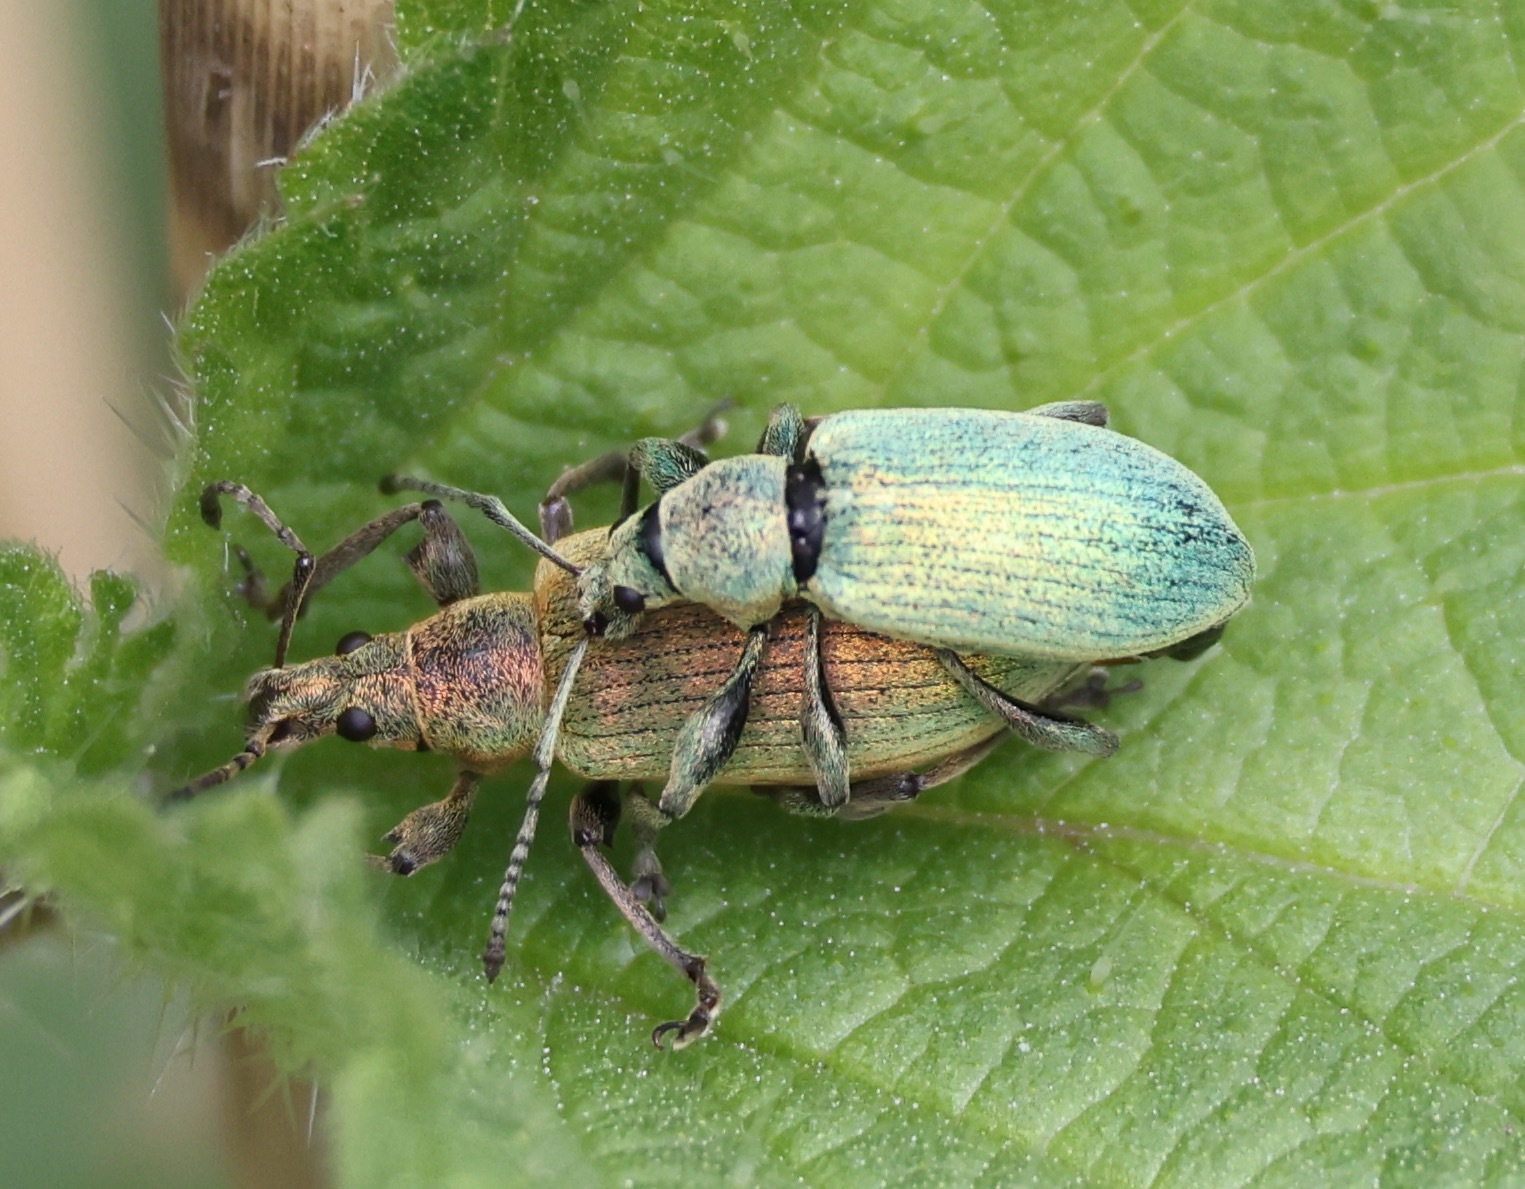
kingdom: Animalia
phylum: Arthropoda
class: Insecta
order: Coleoptera
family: Curculionidae
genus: Phyllobius
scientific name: Phyllobius pomaceus
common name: Green nettle weevil
